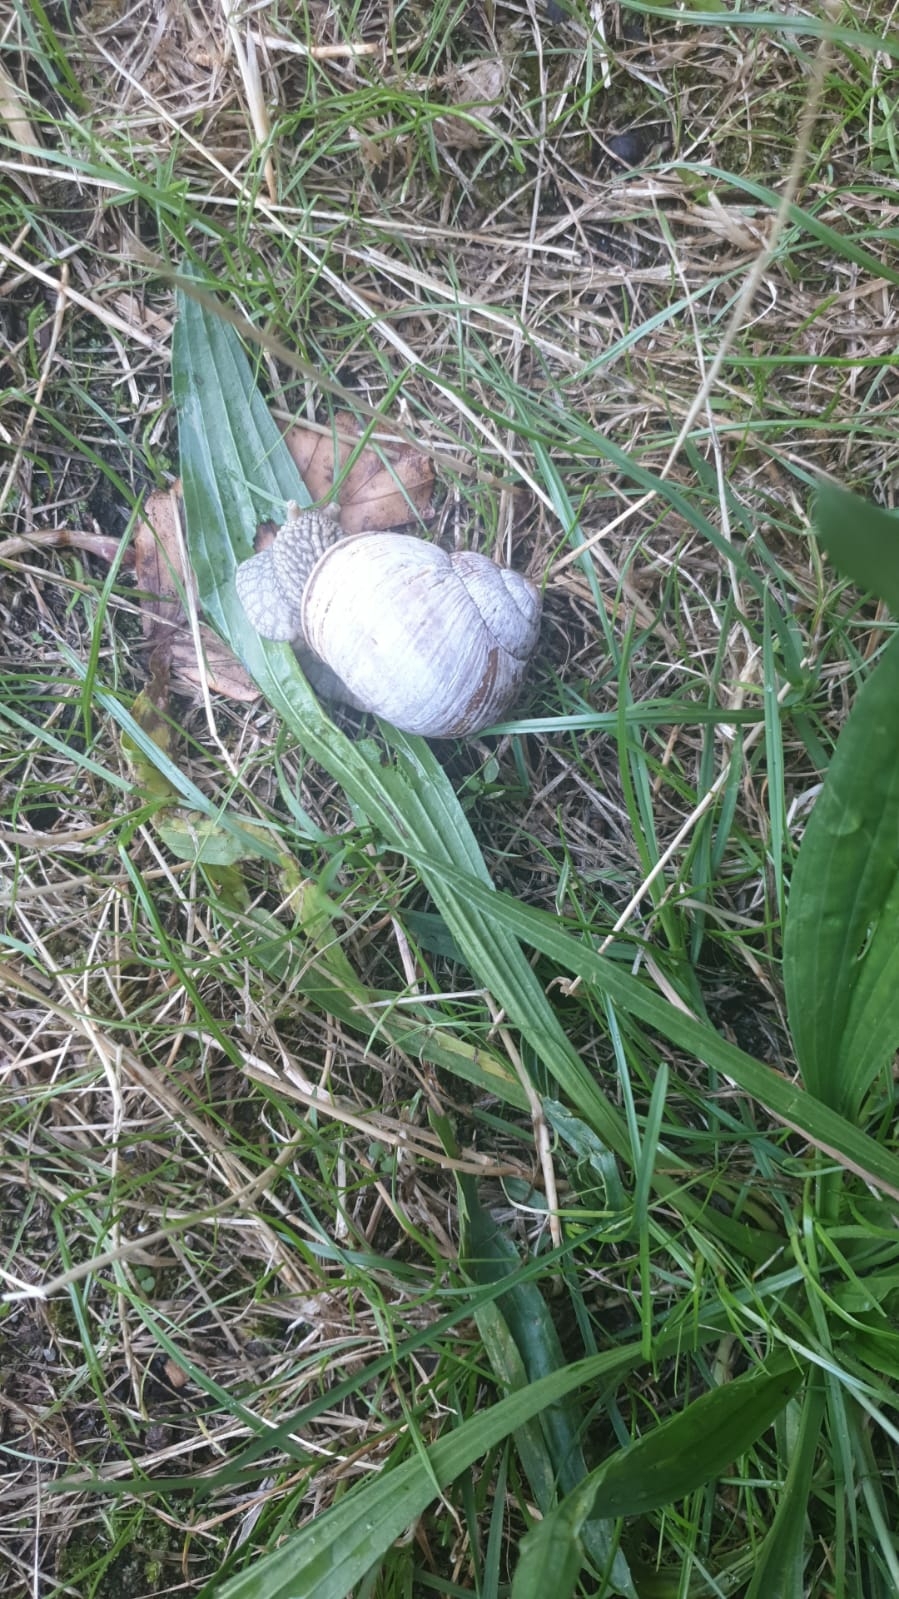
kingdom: Animalia
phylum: Mollusca
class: Gastropoda
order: Stylommatophora
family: Helicidae
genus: Helix
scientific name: Helix pomatia
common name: Roman snail
